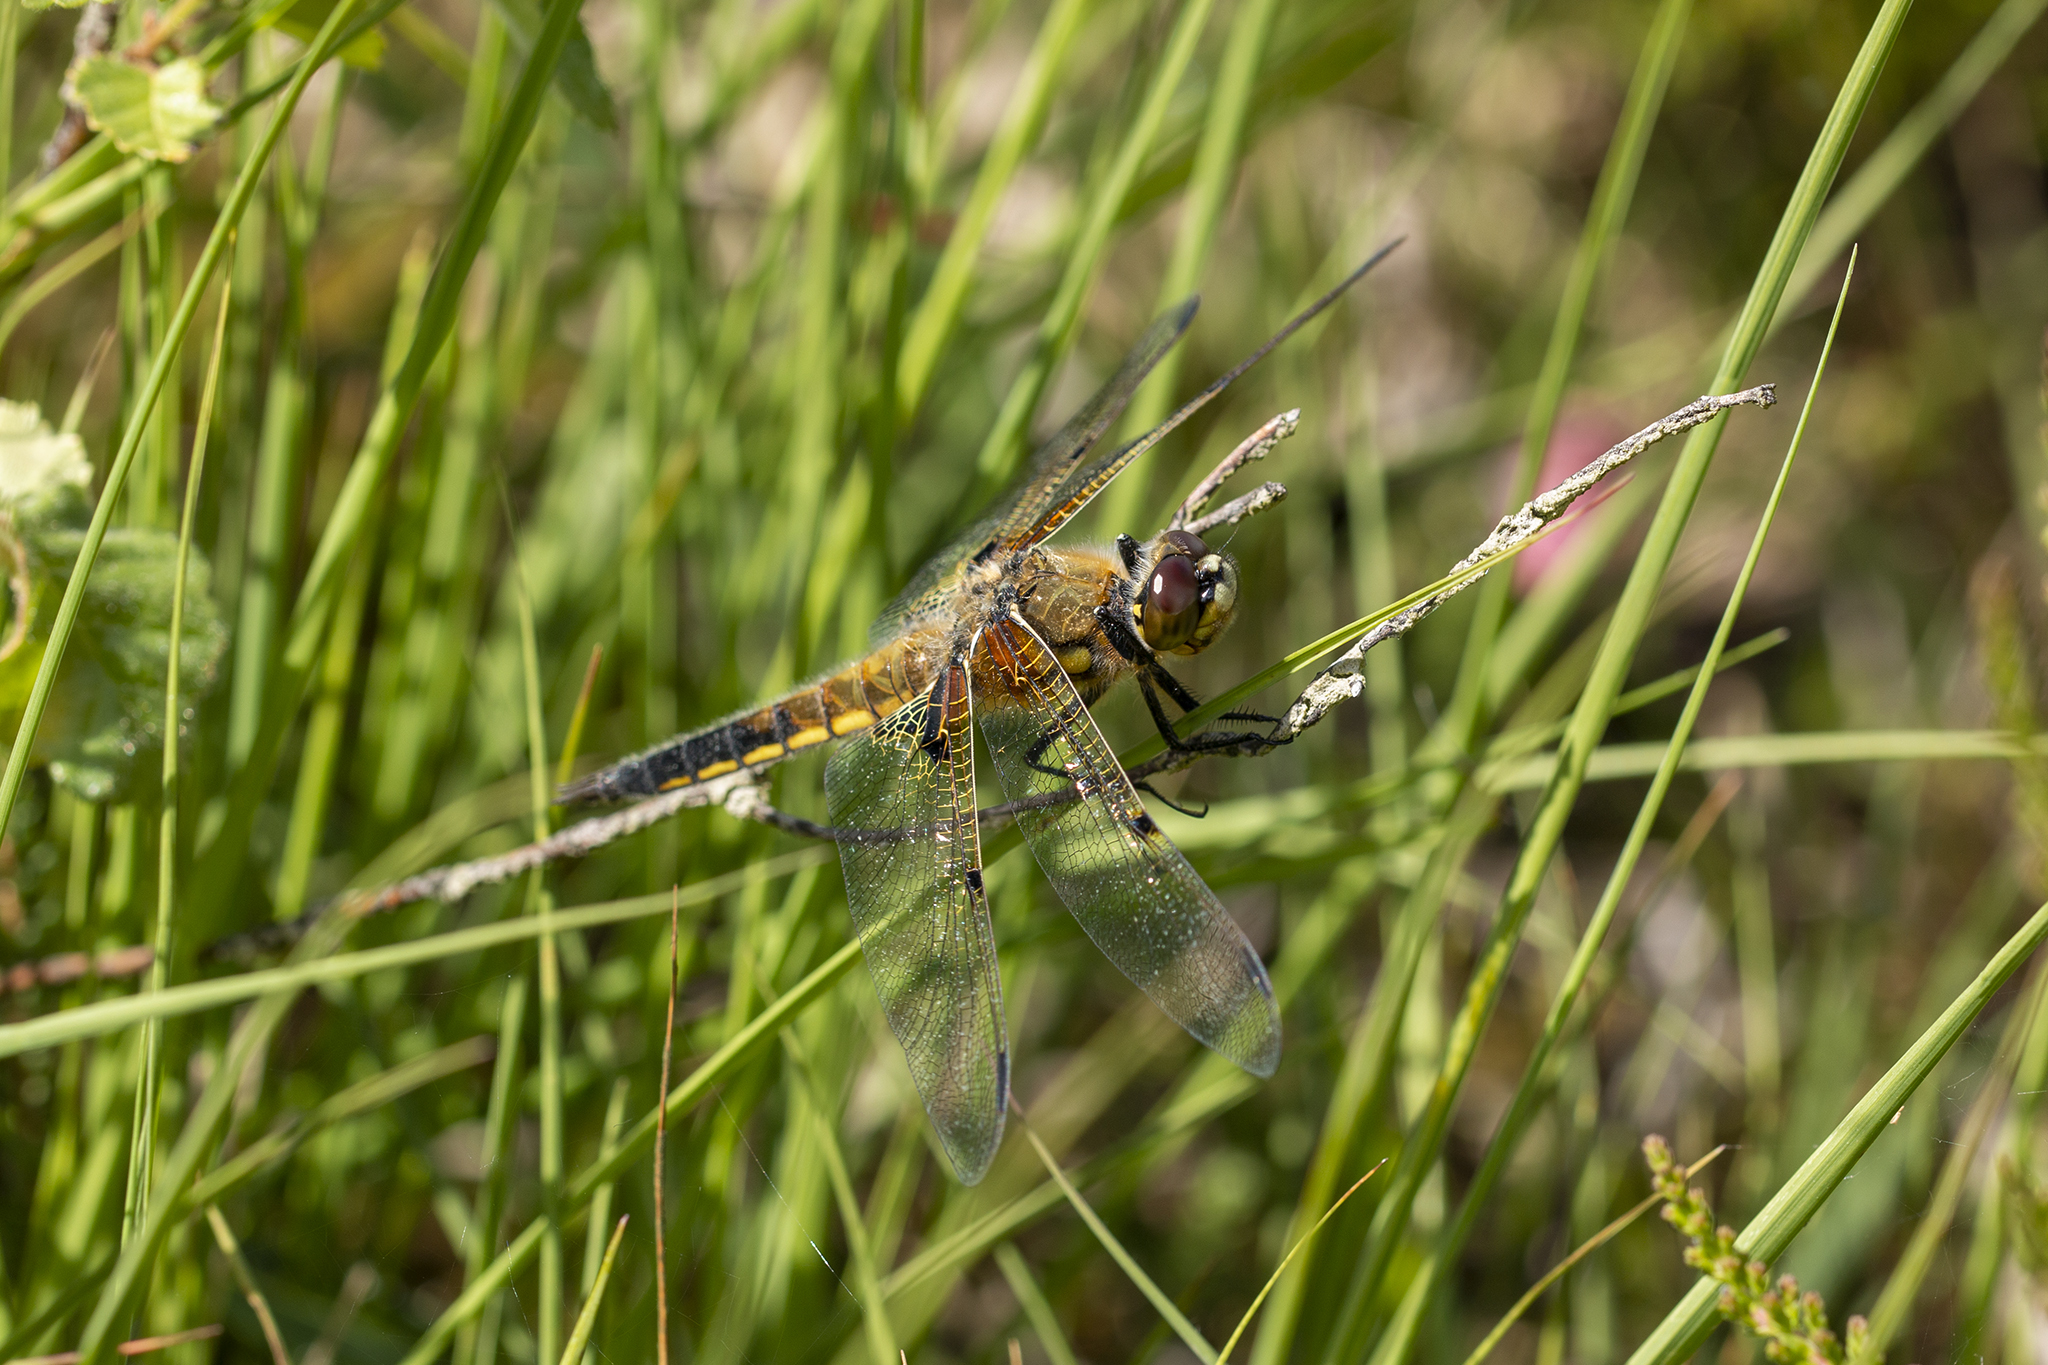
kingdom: Animalia
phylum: Arthropoda
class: Insecta
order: Odonata
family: Libellulidae
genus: Libellula
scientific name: Libellula quadrimaculata
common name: Four-spotted chaser
